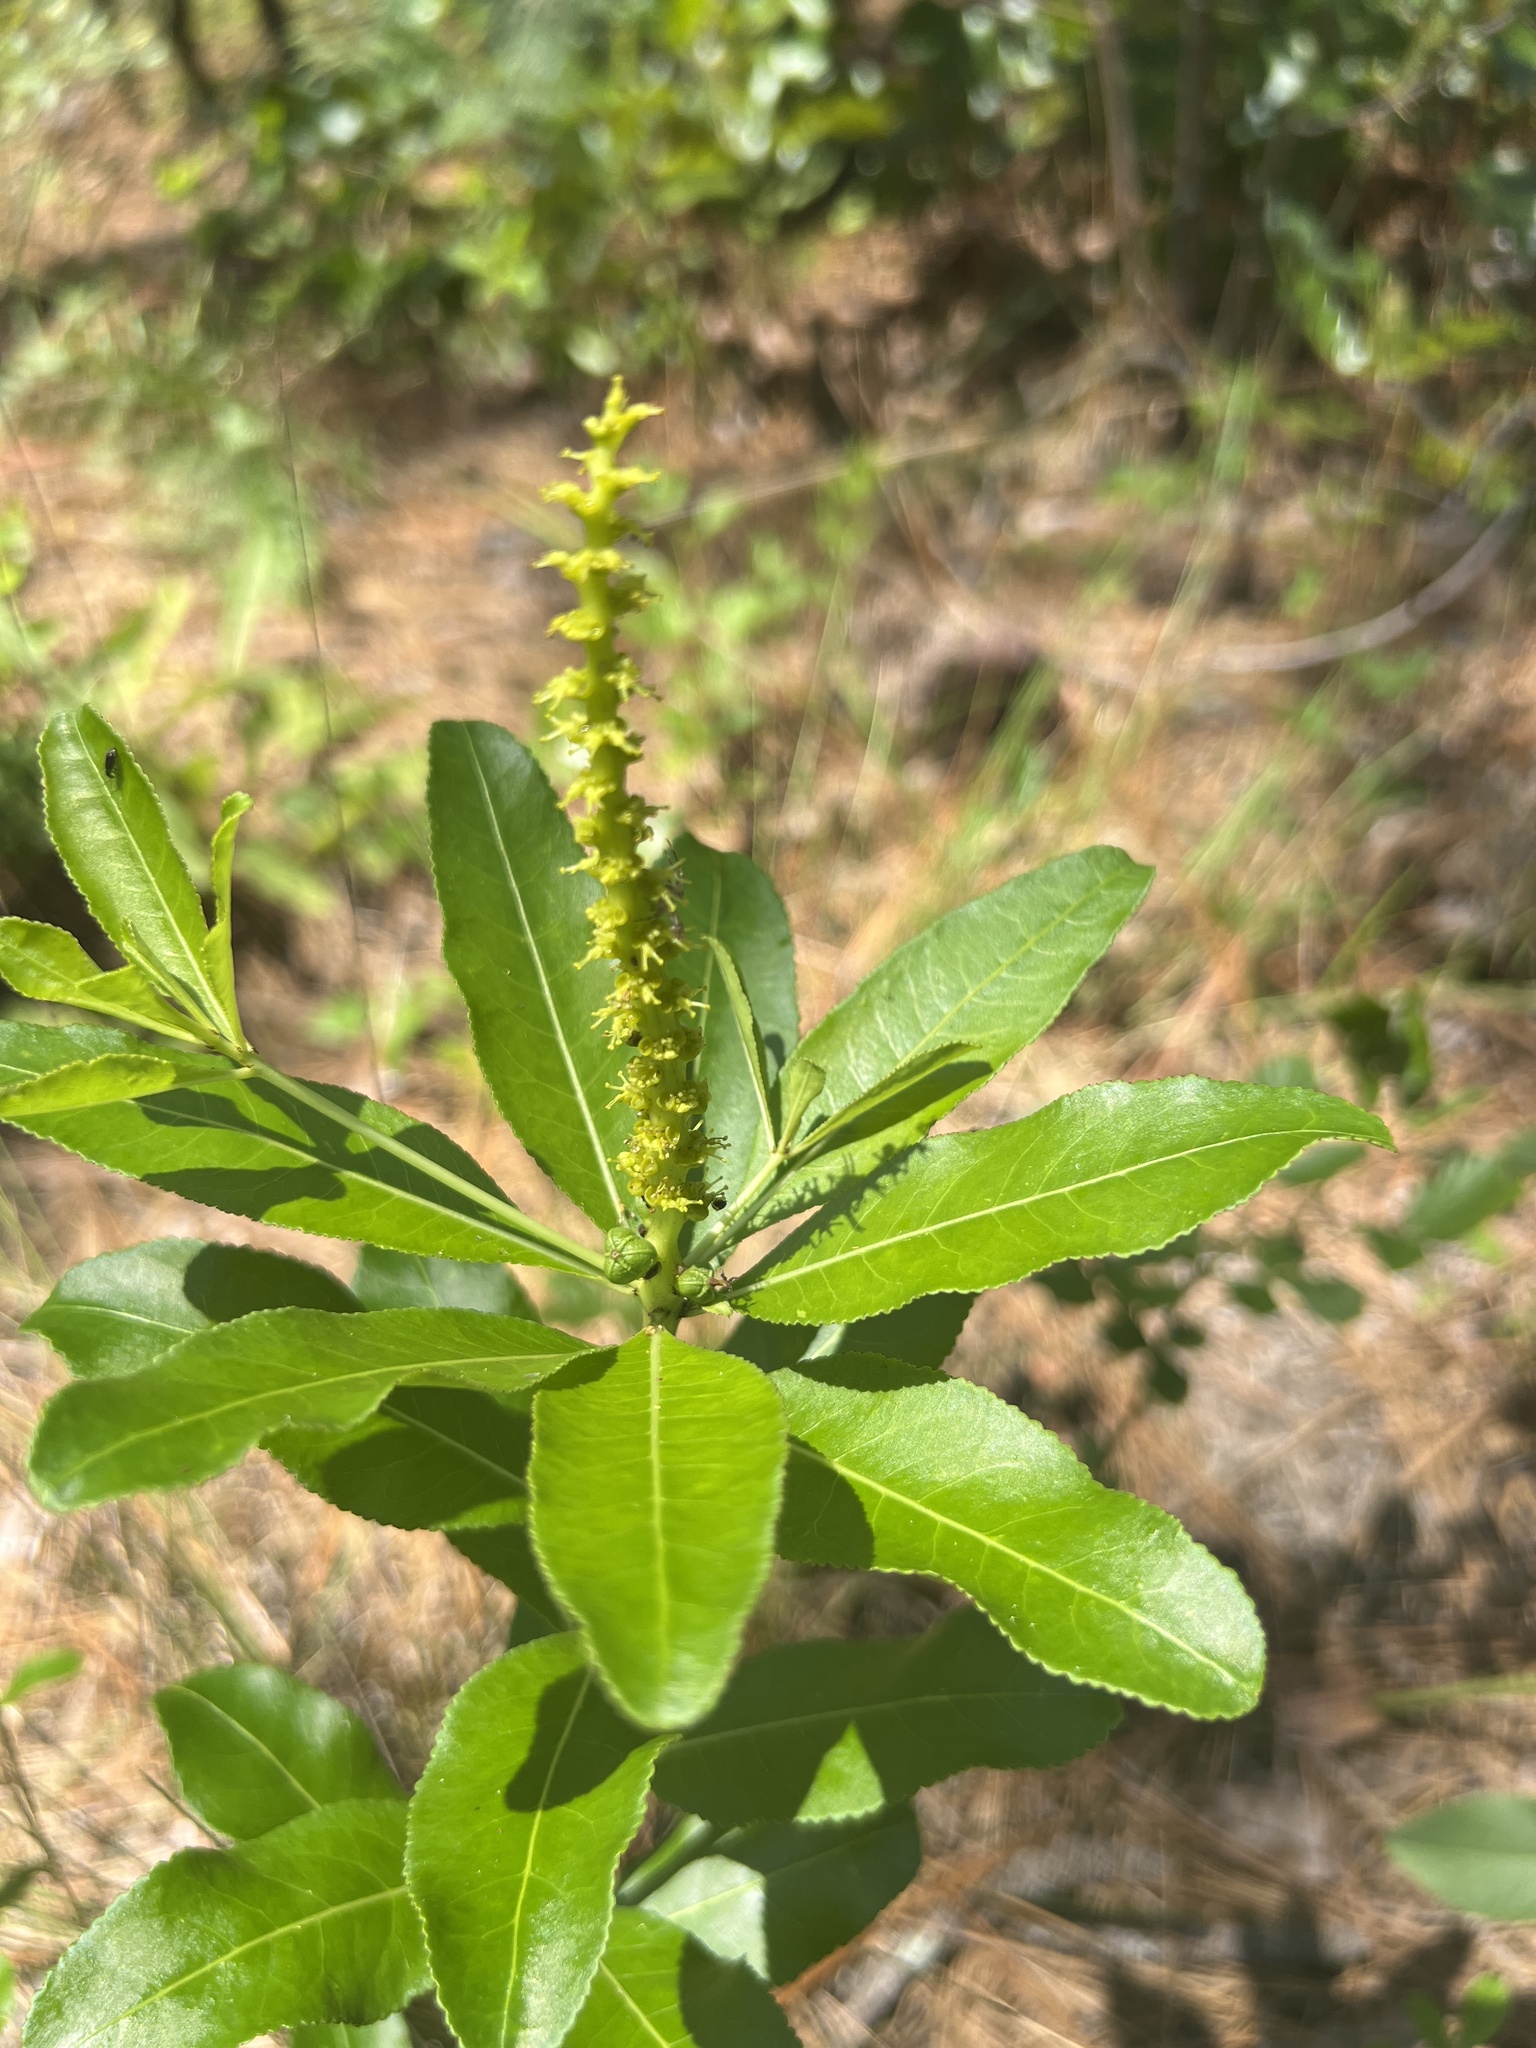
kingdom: Plantae
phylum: Tracheophyta
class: Magnoliopsida
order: Malpighiales
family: Euphorbiaceae
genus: Stillingia
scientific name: Stillingia sylvatica
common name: Queen's-delight
